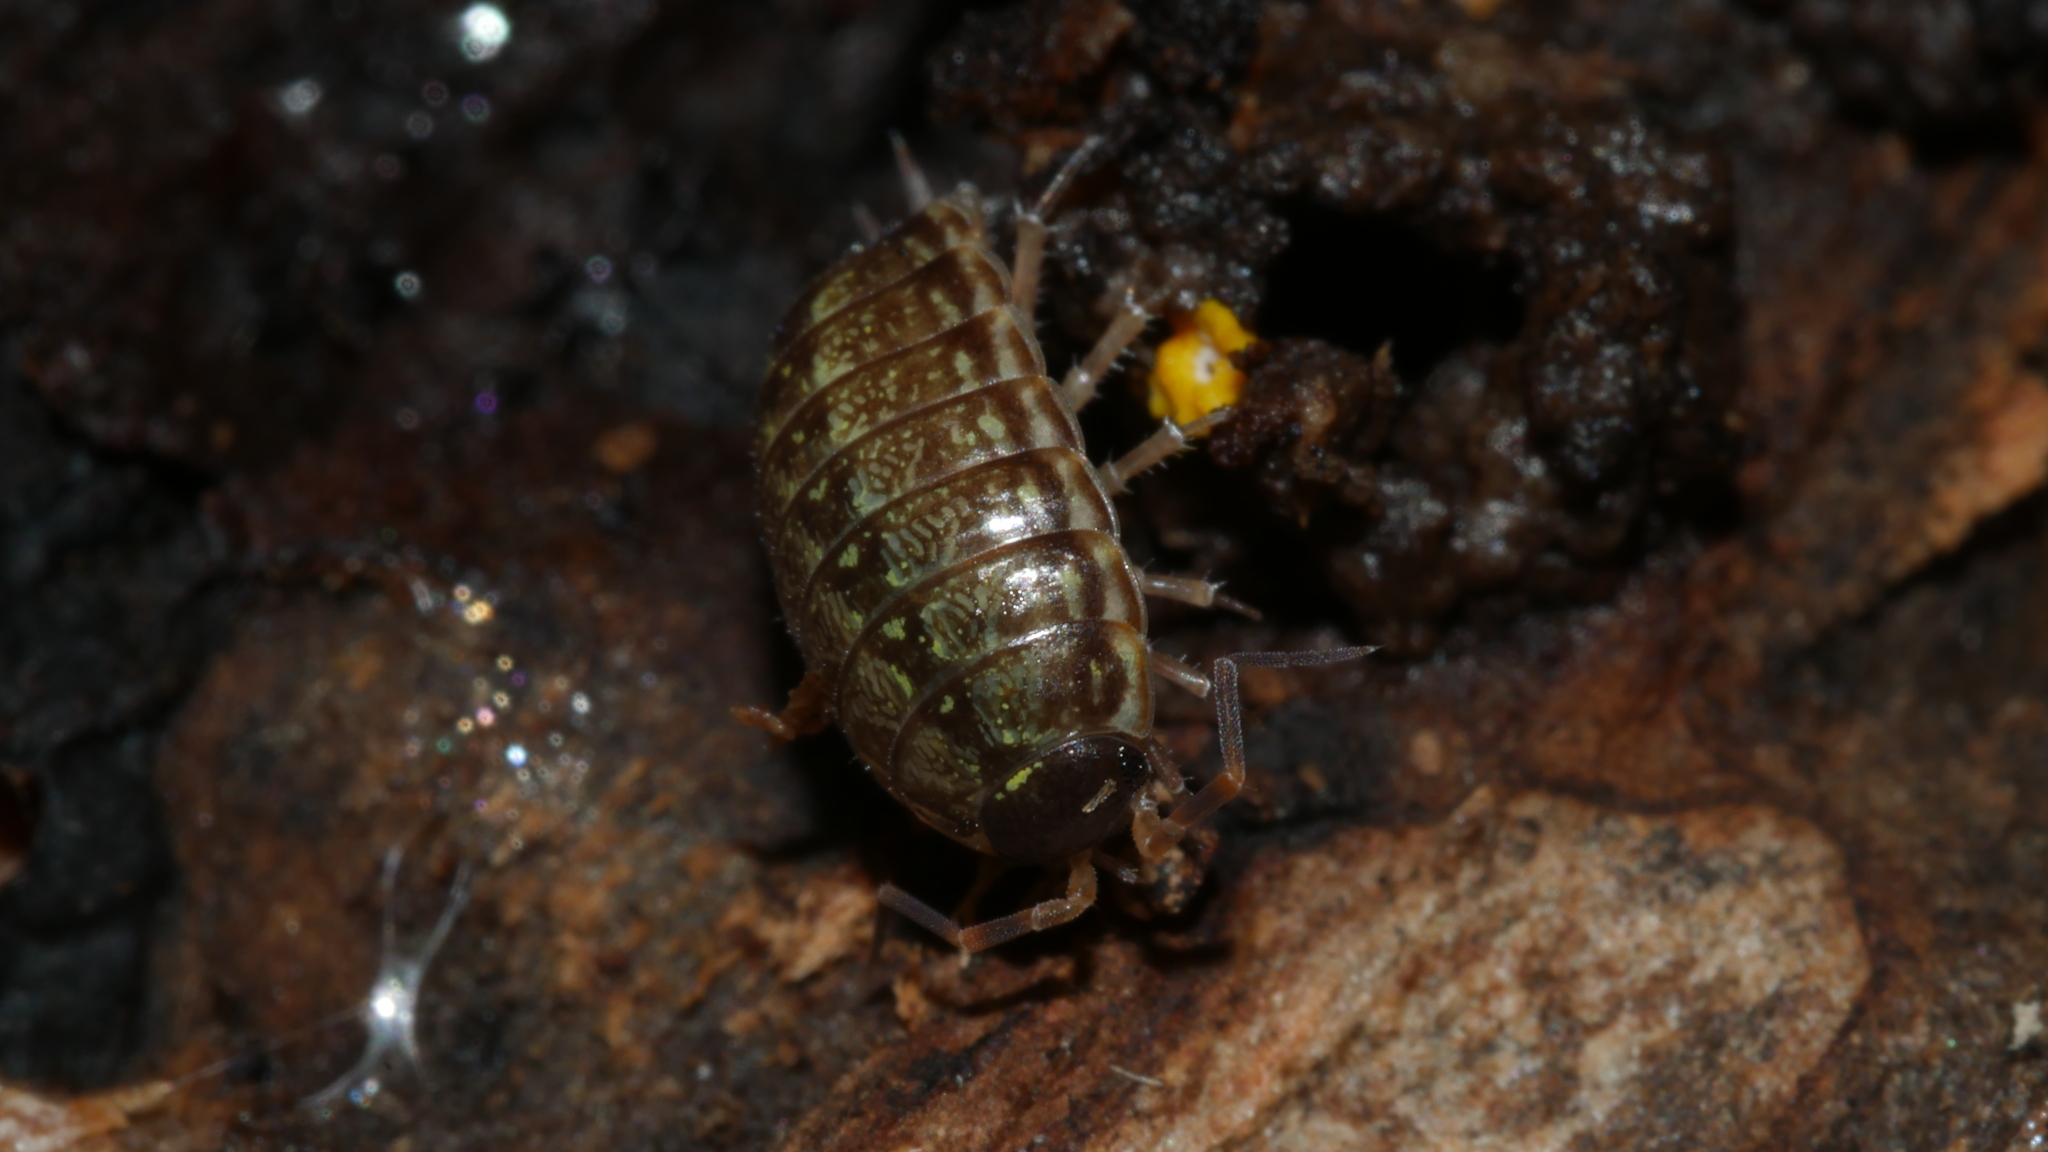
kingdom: Animalia
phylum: Arthropoda
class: Malacostraca
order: Isopoda
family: Philosciidae
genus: Philoscia
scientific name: Philoscia muscorum
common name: Common striped woodlouse
